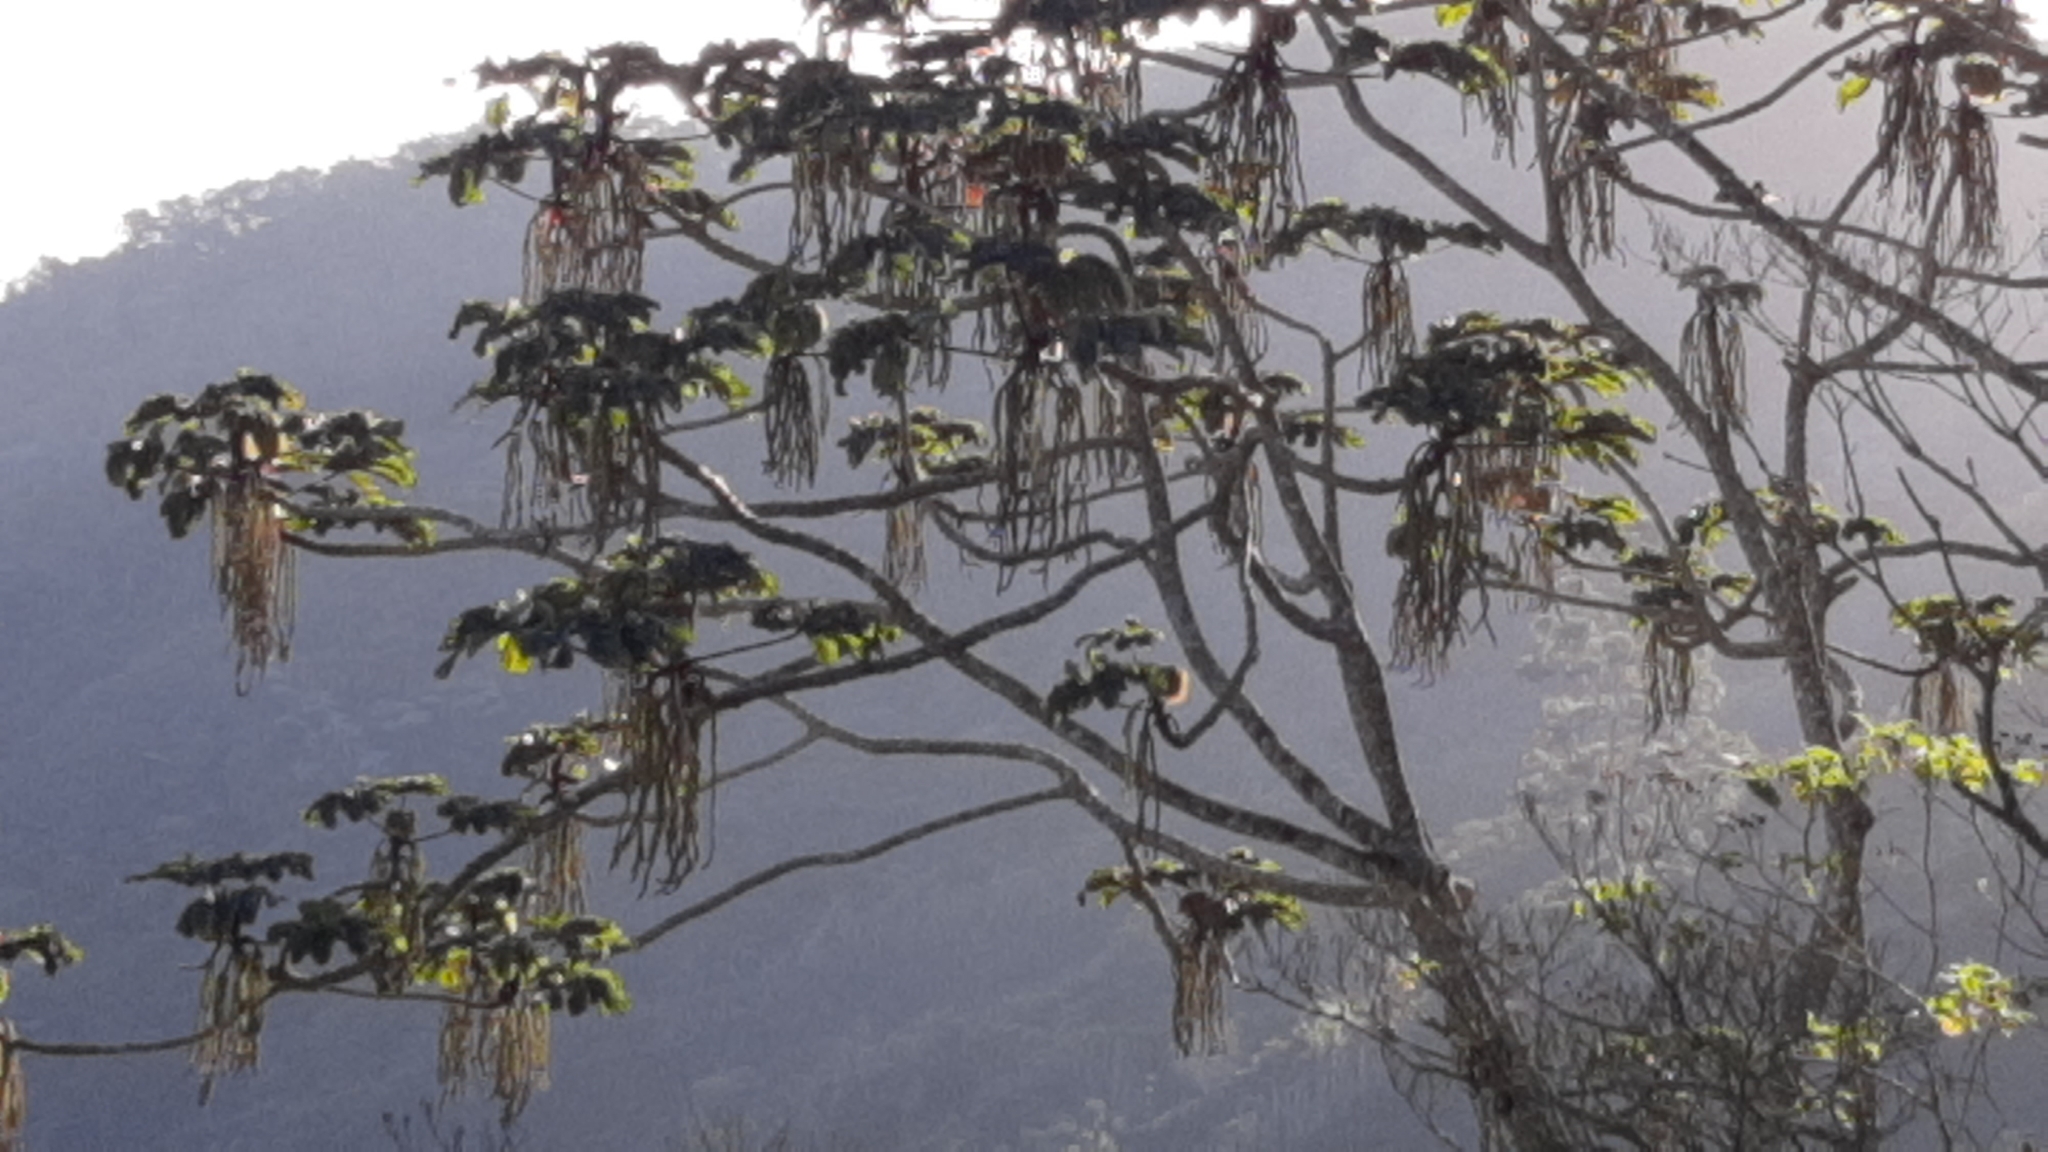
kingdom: Plantae
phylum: Tracheophyta
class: Magnoliopsida
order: Rosales
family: Urticaceae
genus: Cecropia
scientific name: Cecropia obtusifolia
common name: Trumpet tree
